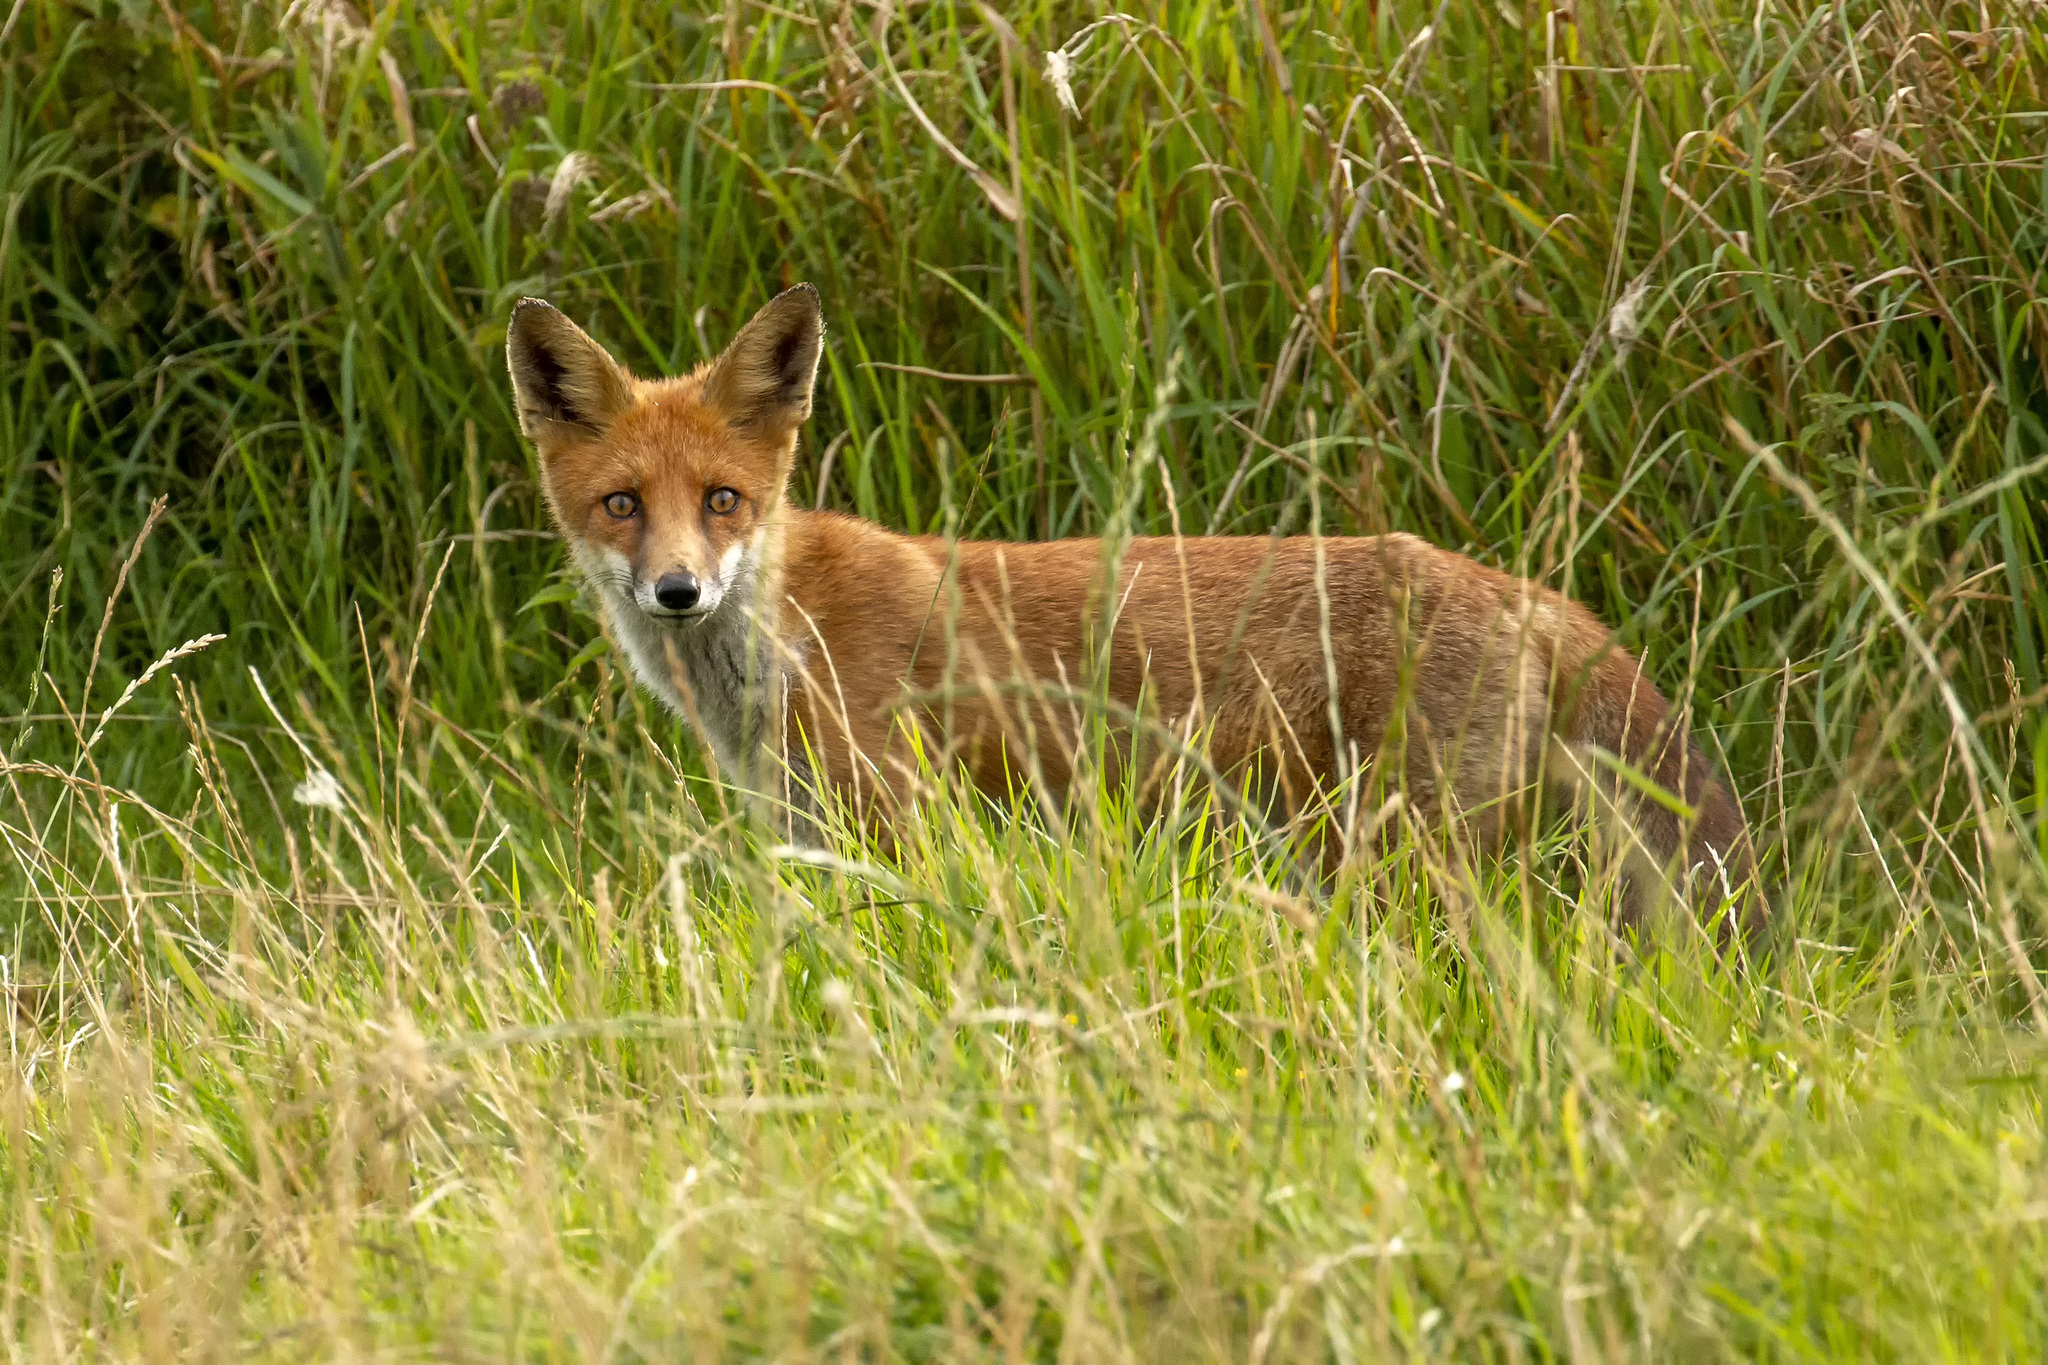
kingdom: Animalia
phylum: Chordata
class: Mammalia
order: Carnivora
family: Canidae
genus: Vulpes
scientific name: Vulpes vulpes
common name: Red fox
